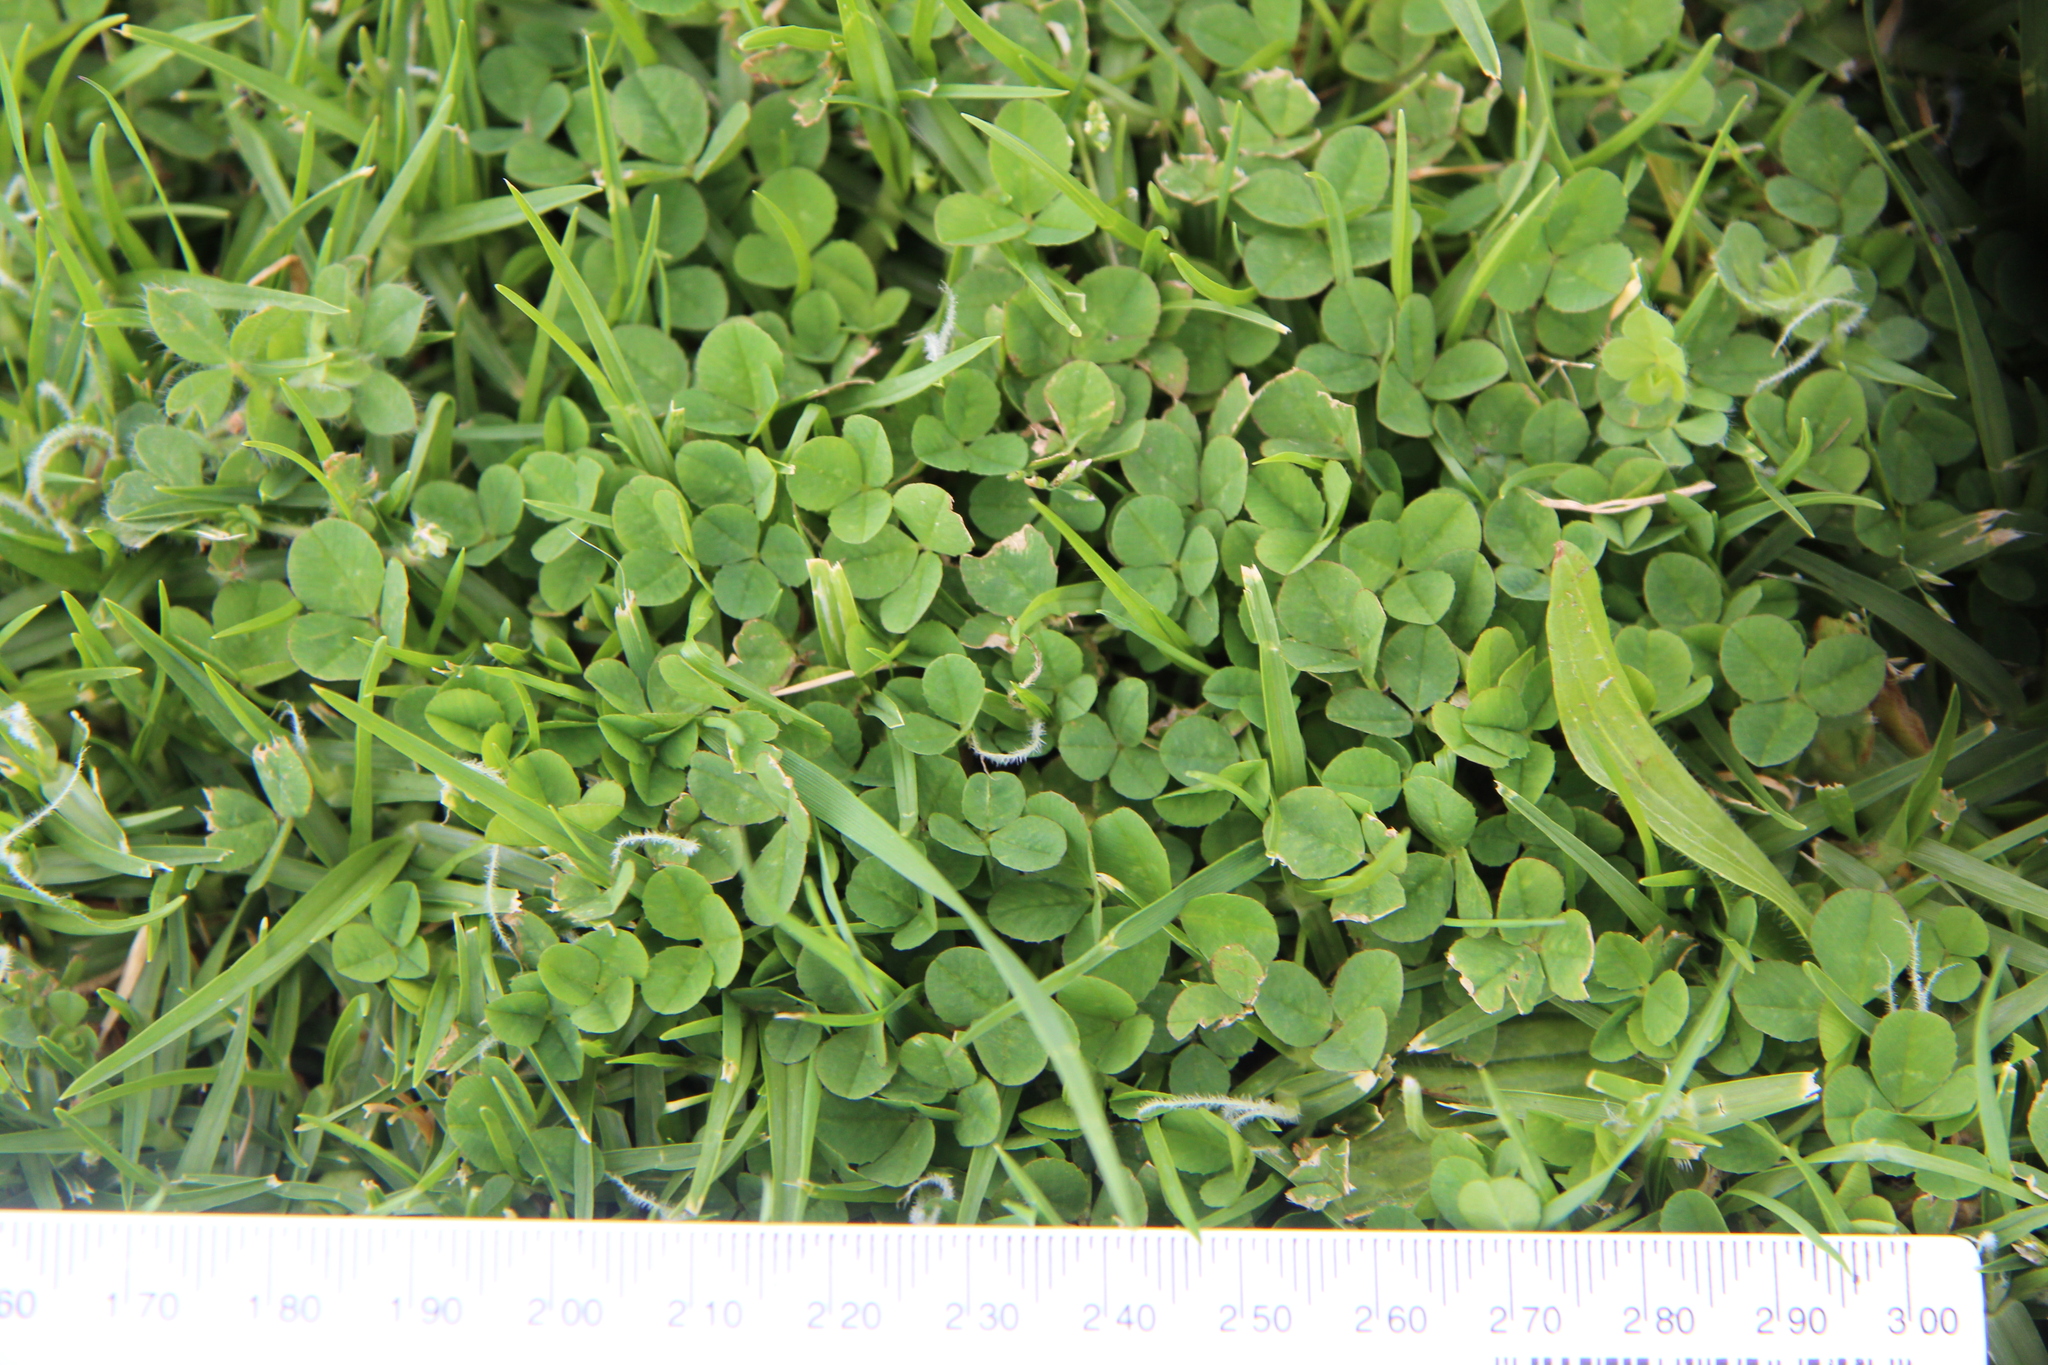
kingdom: Plantae
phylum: Tracheophyta
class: Magnoliopsida
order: Fabales
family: Fabaceae
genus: Trifolium
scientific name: Trifolium repens
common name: White clover
